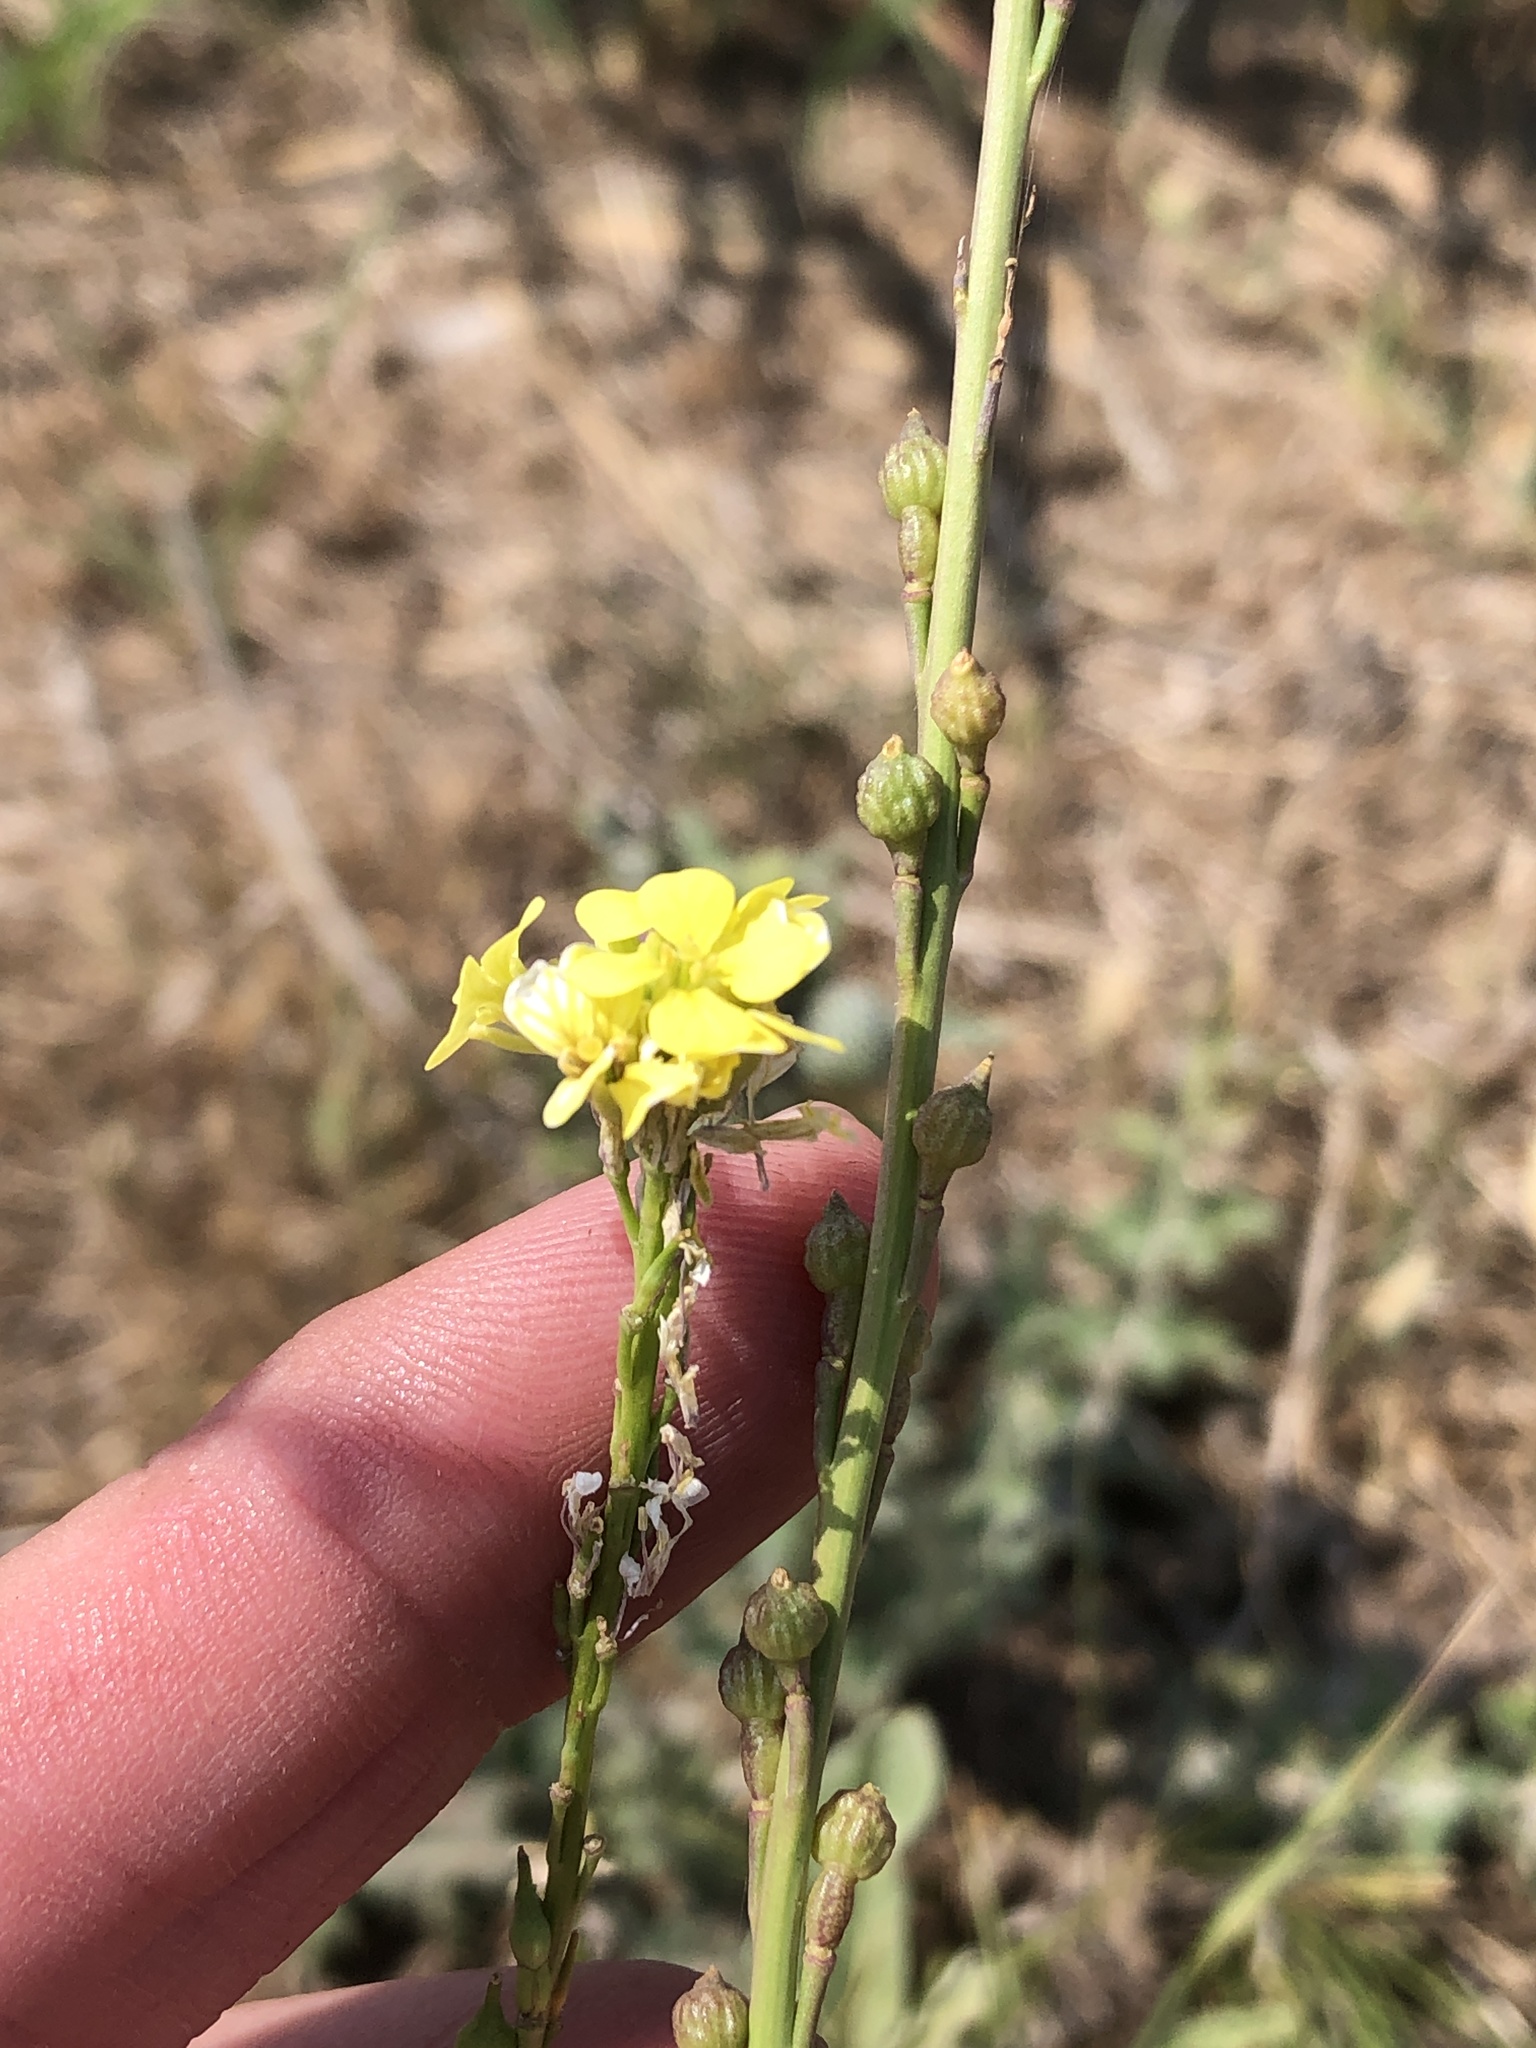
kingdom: Plantae
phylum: Tracheophyta
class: Magnoliopsida
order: Brassicales
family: Brassicaceae
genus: Rapistrum
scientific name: Rapistrum rugosum
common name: Annual bastardcabbage
